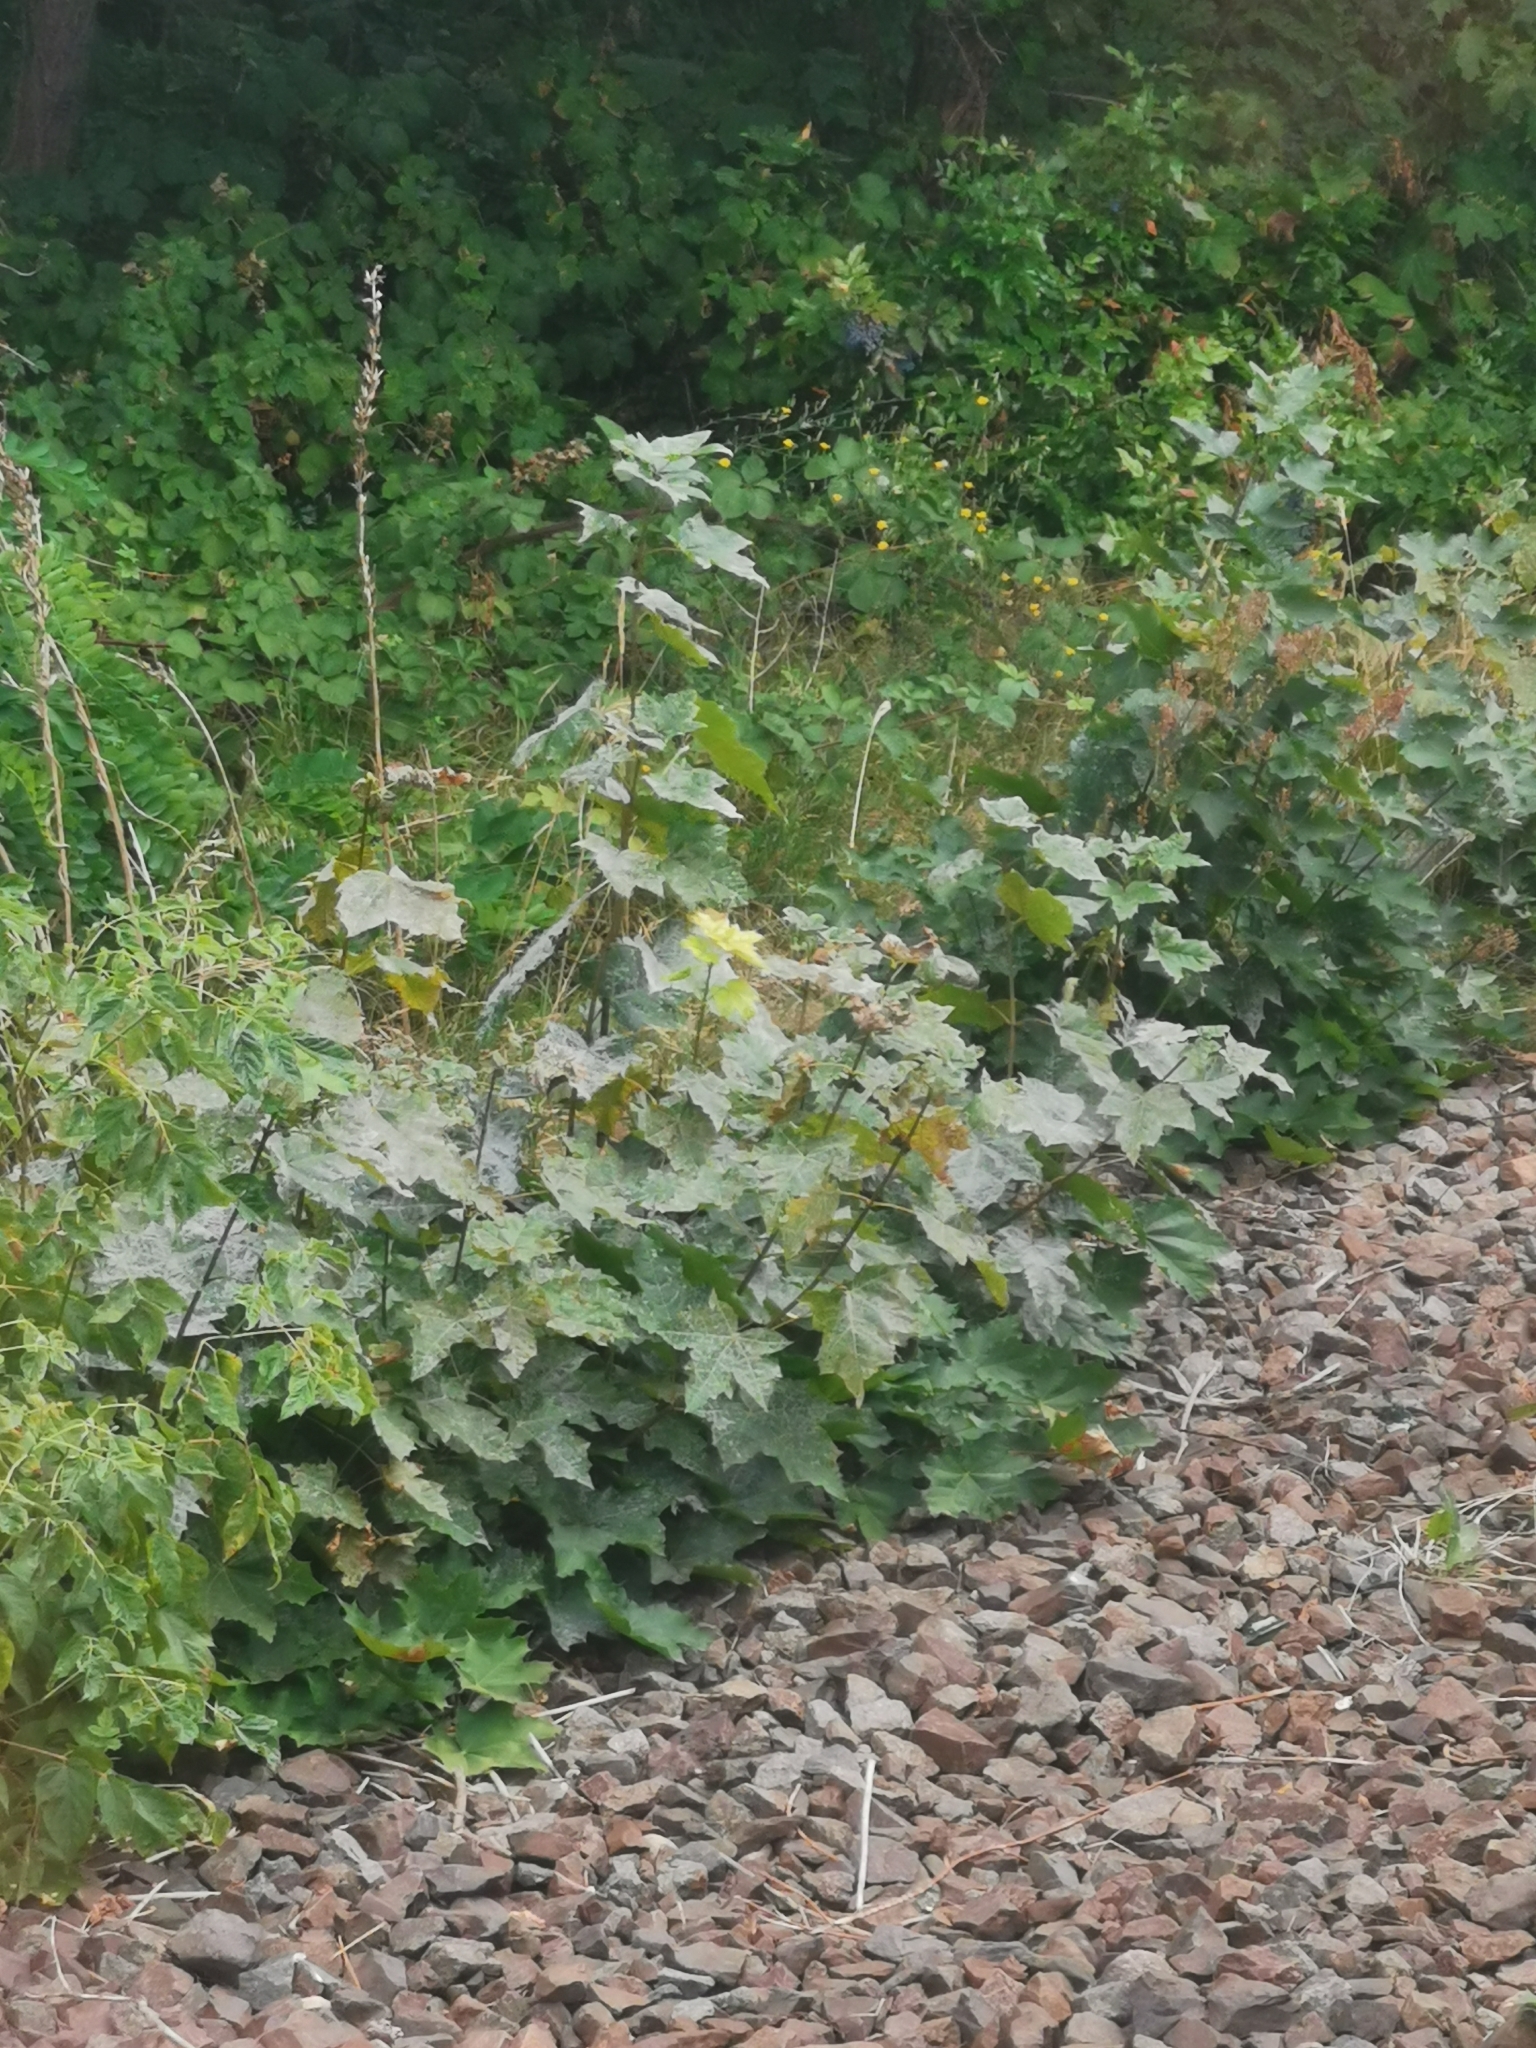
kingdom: Plantae
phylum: Tracheophyta
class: Magnoliopsida
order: Sapindales
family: Sapindaceae
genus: Acer
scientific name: Acer platanoides
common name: Norway maple
